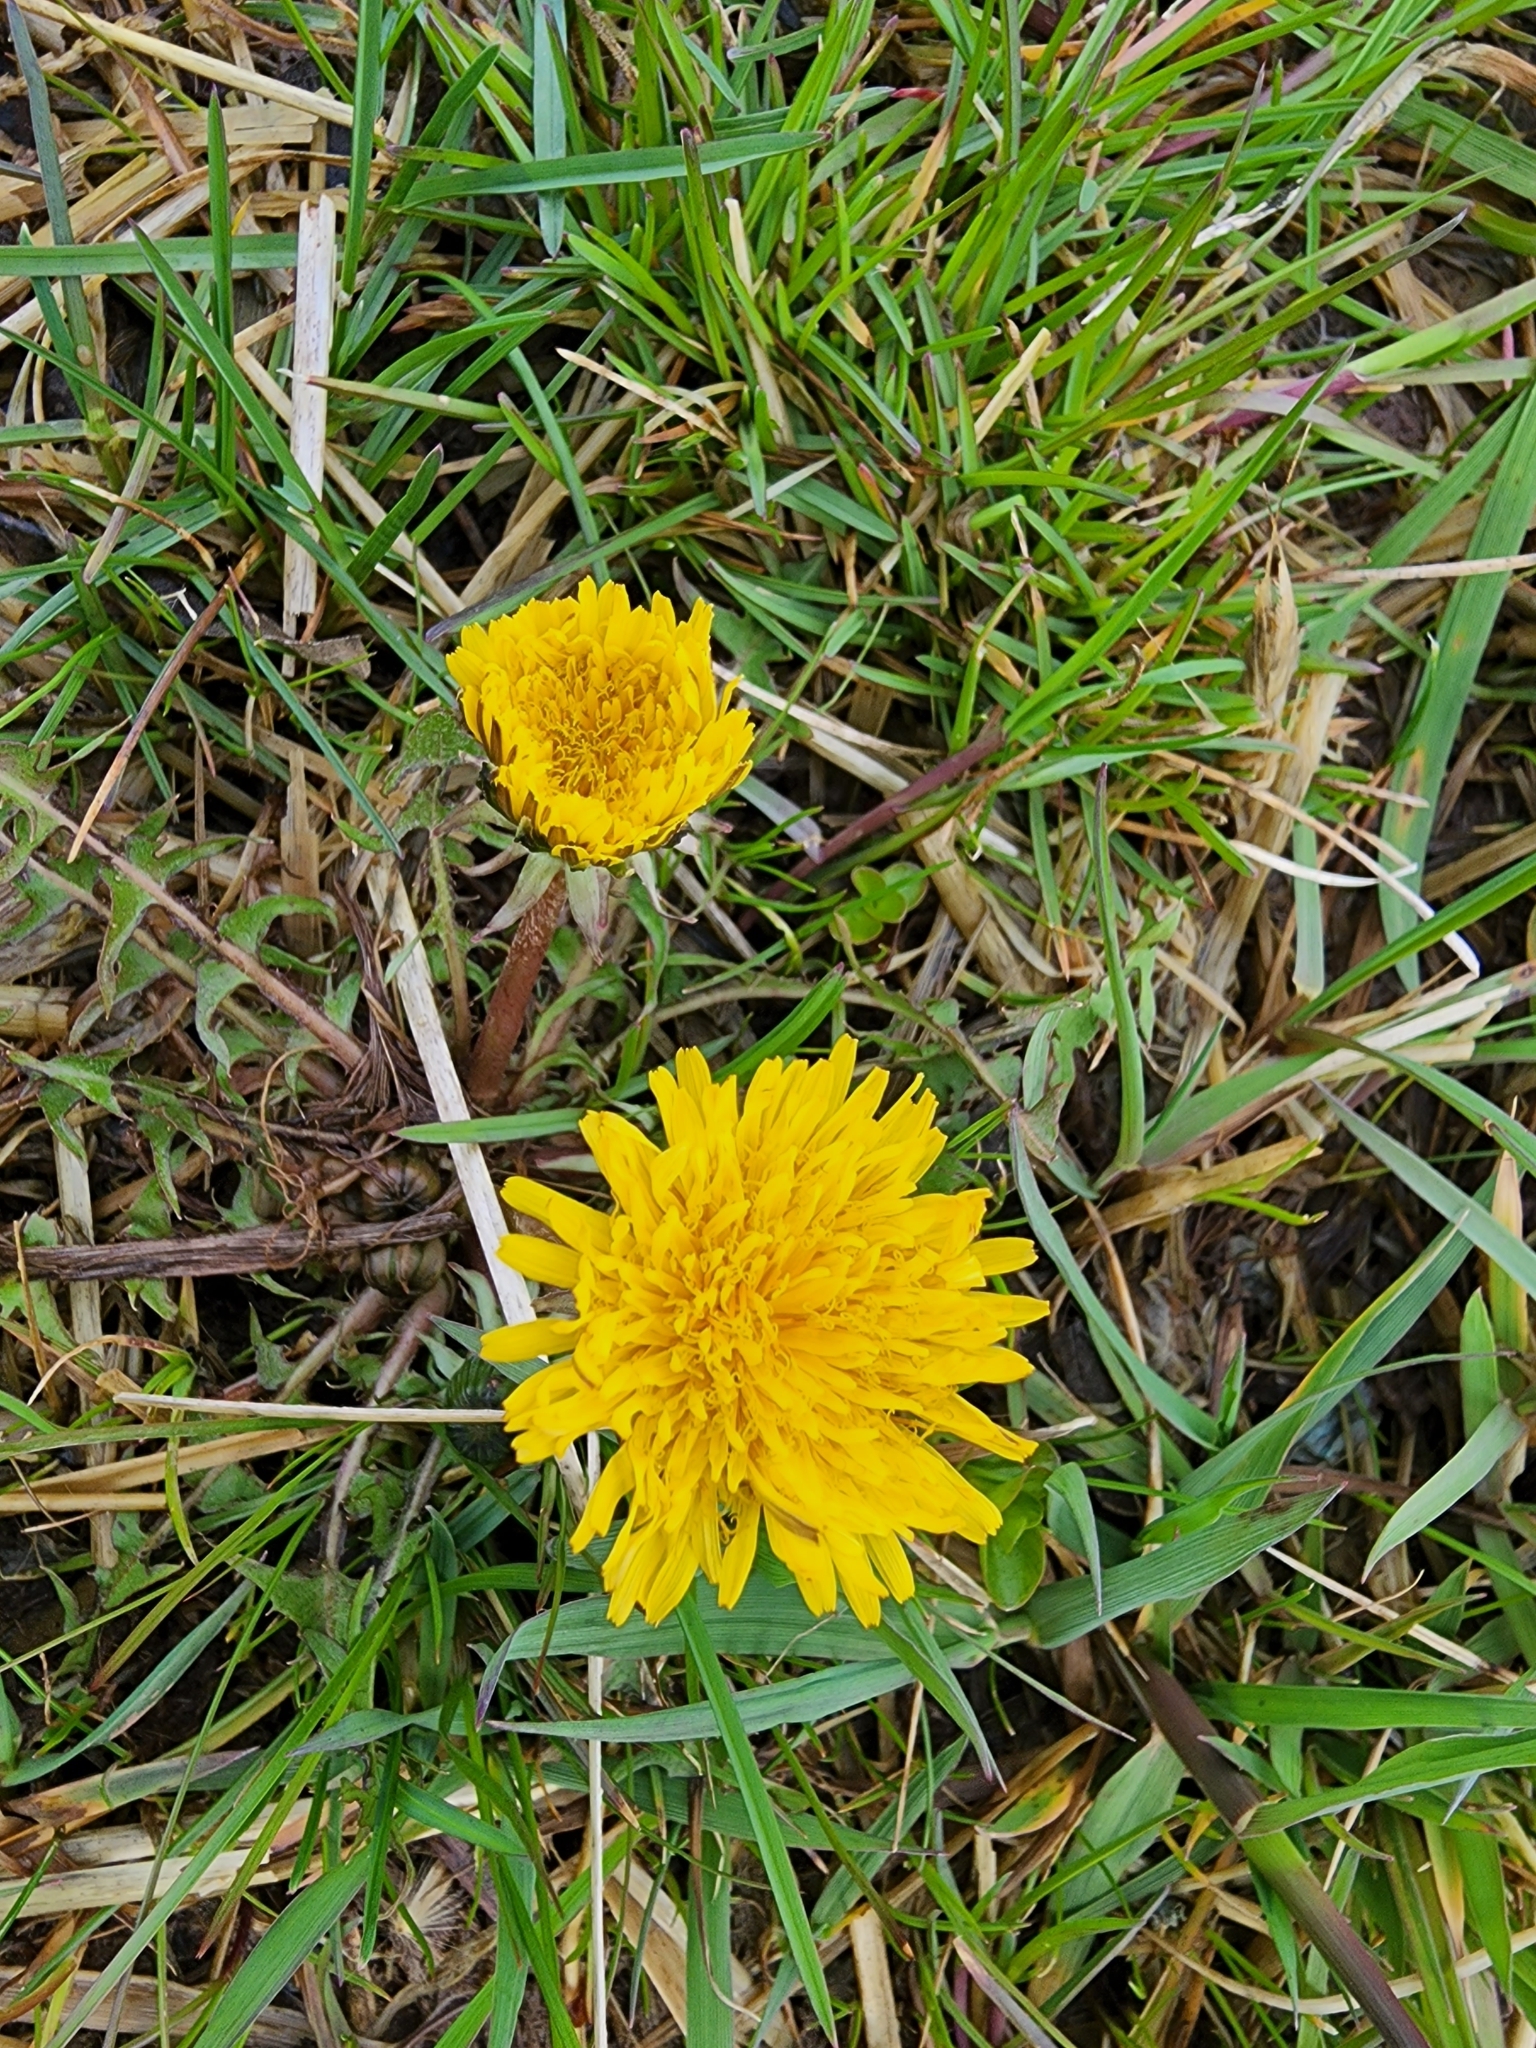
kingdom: Plantae
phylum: Tracheophyta
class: Magnoliopsida
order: Asterales
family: Asteraceae
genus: Taraxacum
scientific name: Taraxacum officinale
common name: Common dandelion
